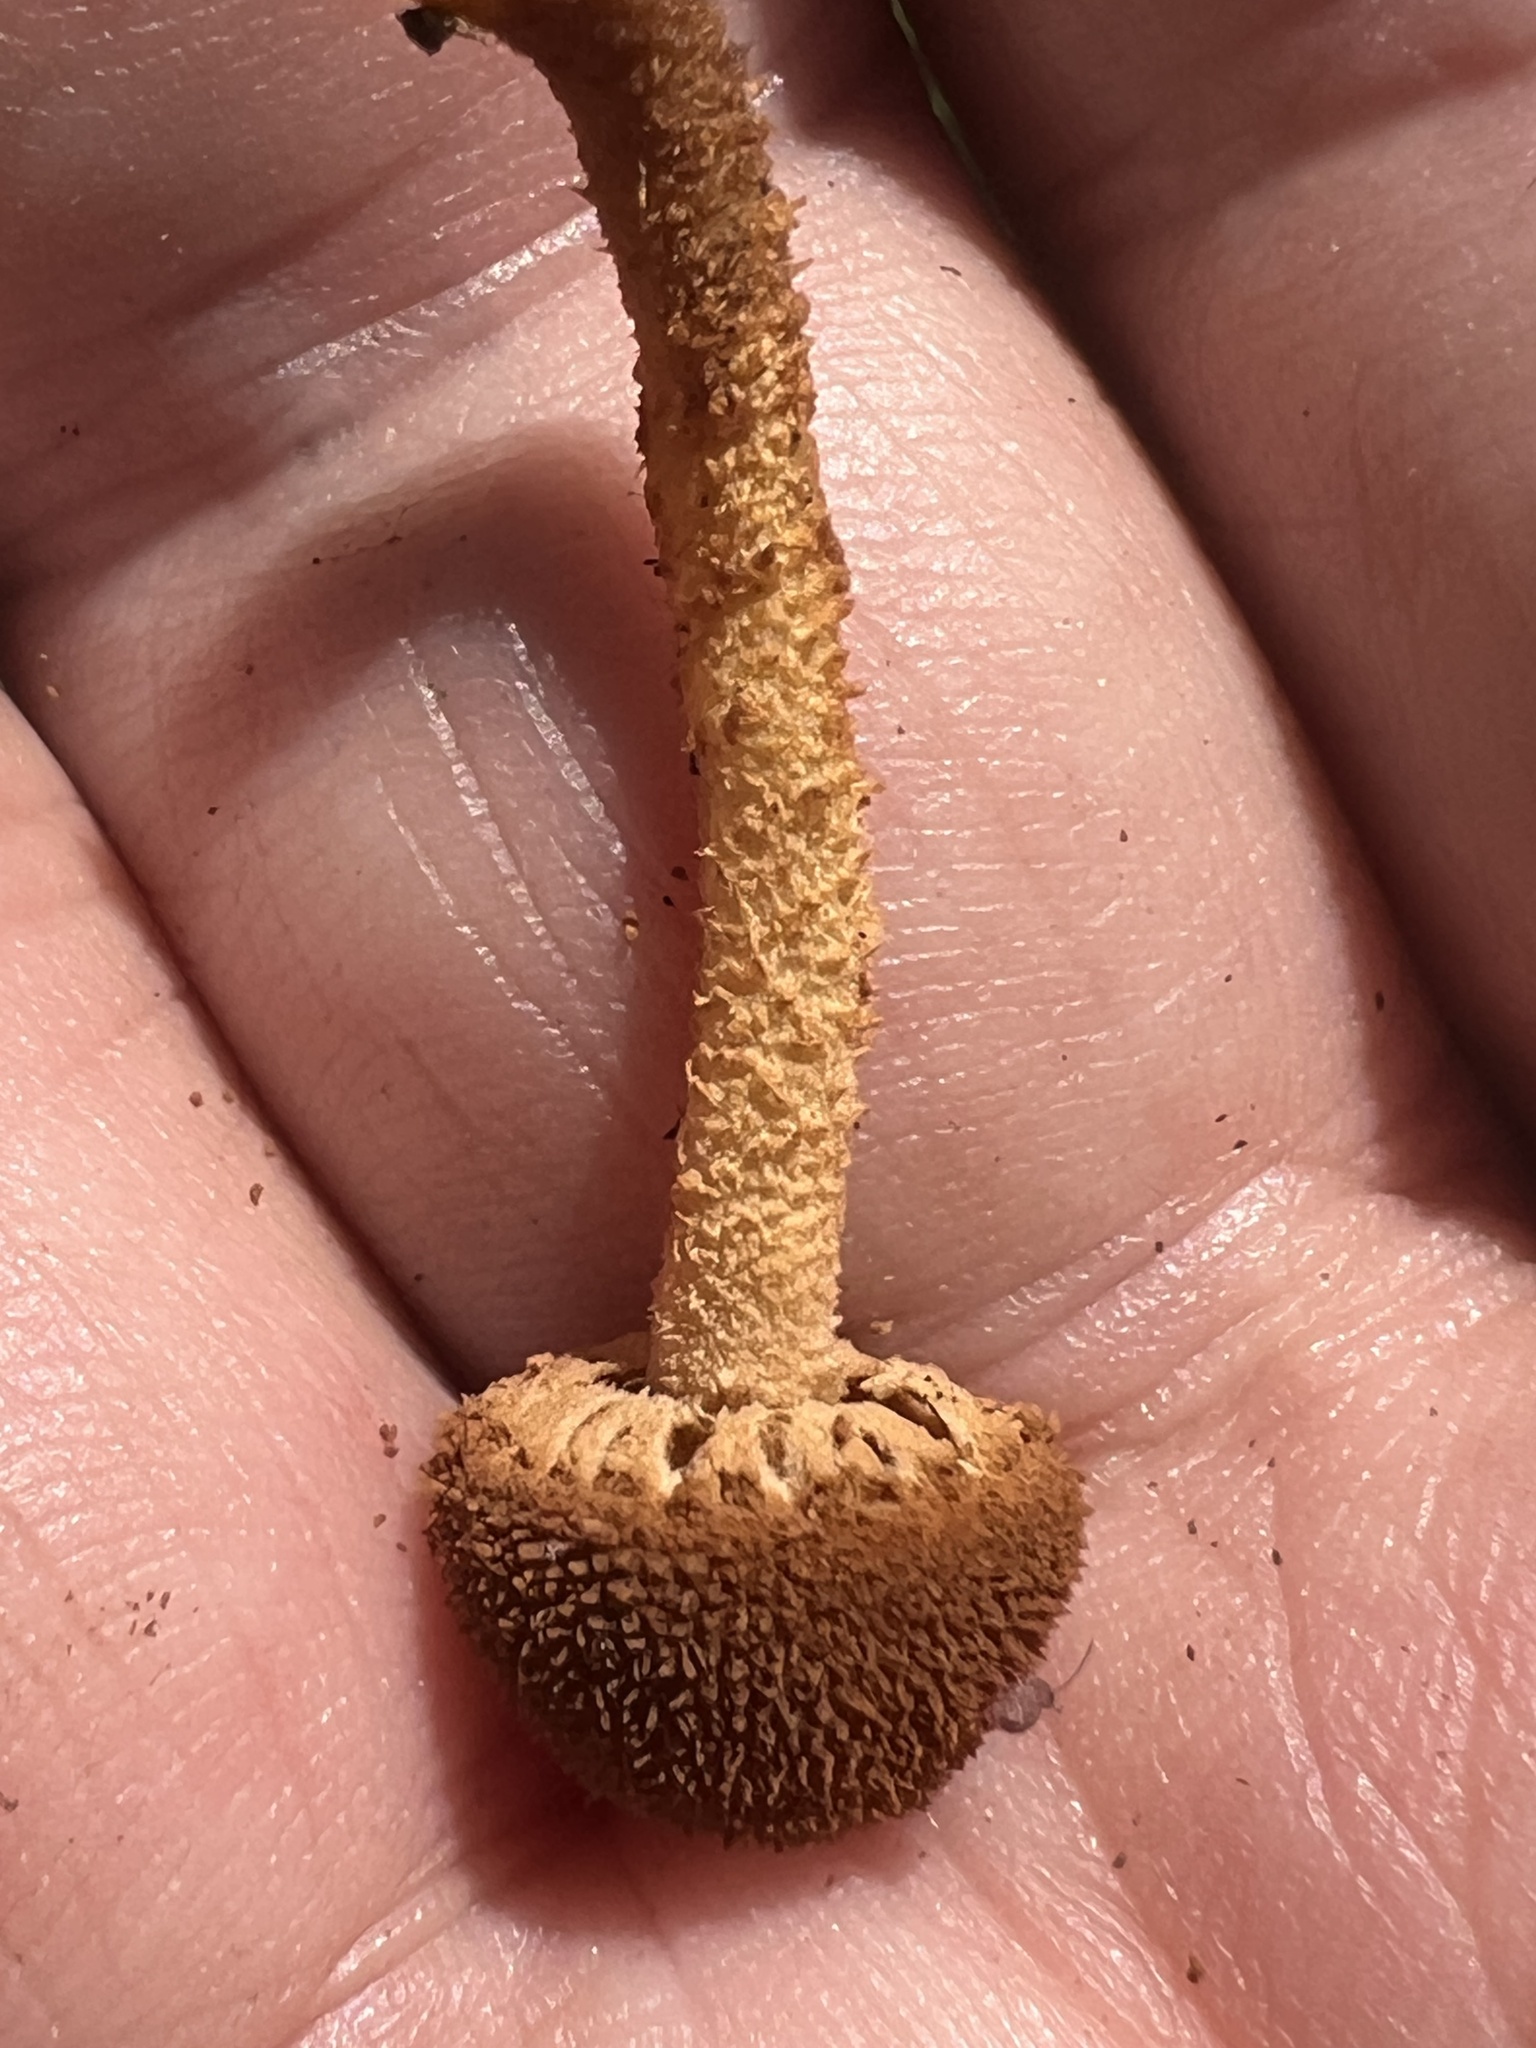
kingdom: Fungi
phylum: Basidiomycota
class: Agaricomycetes
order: Agaricales
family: Tubariaceae
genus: Flammulaster
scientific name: Flammulaster erinaceellus
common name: Powder-scale pholiota
